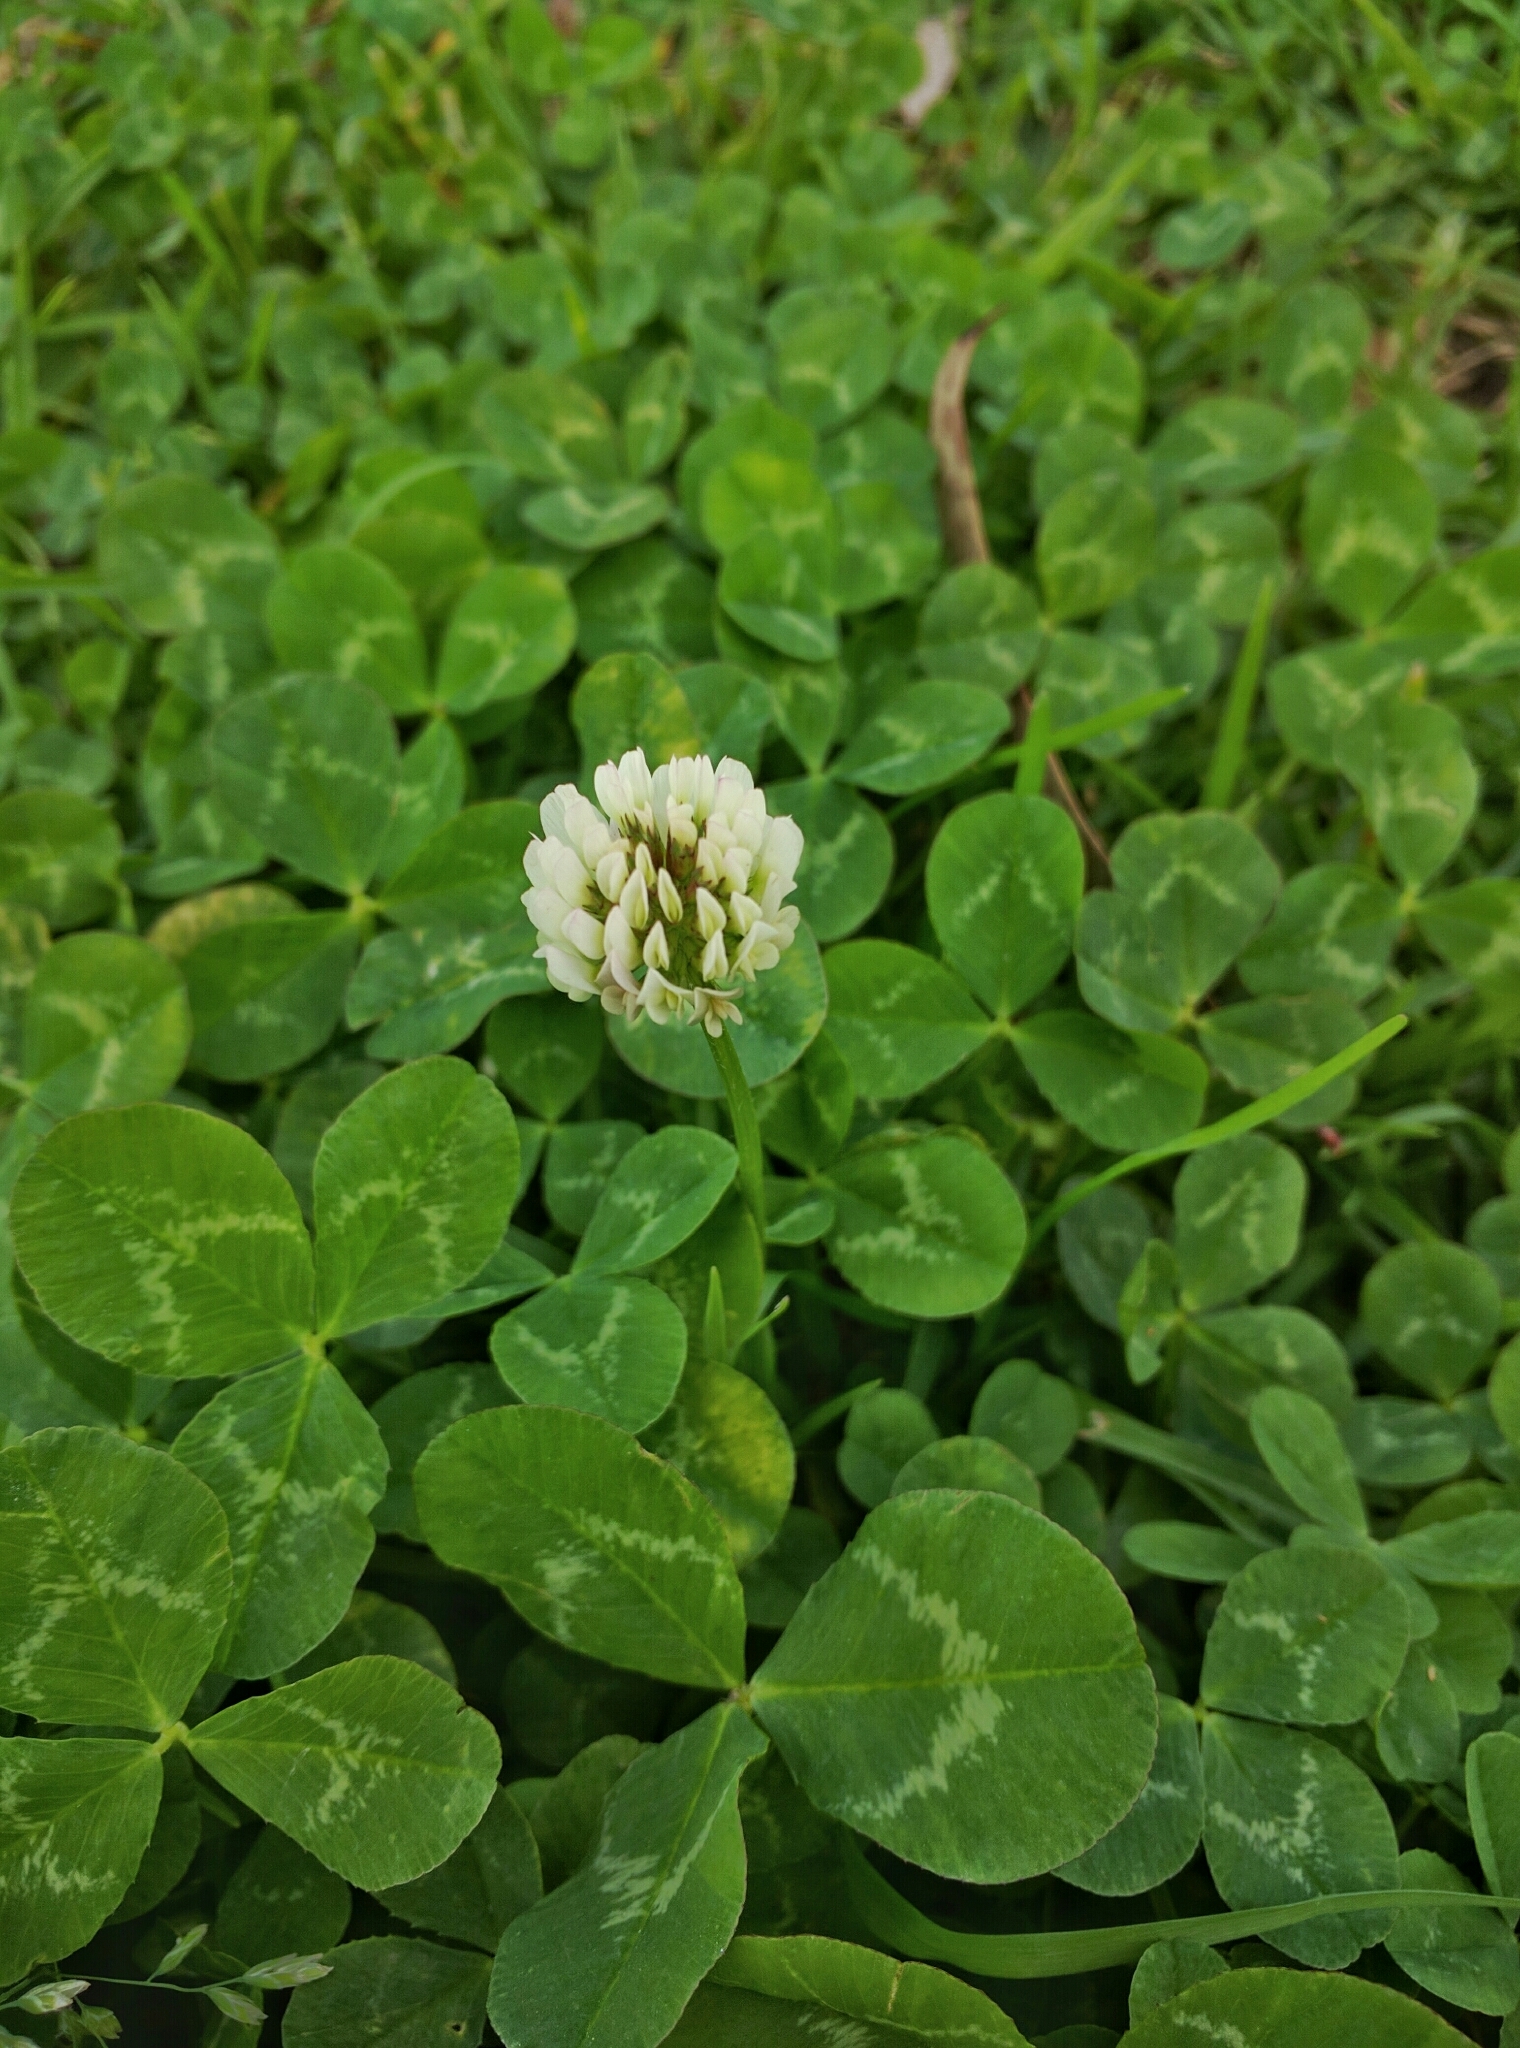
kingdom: Plantae
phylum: Tracheophyta
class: Magnoliopsida
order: Fabales
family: Fabaceae
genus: Trifolium
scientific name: Trifolium repens
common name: White clover
